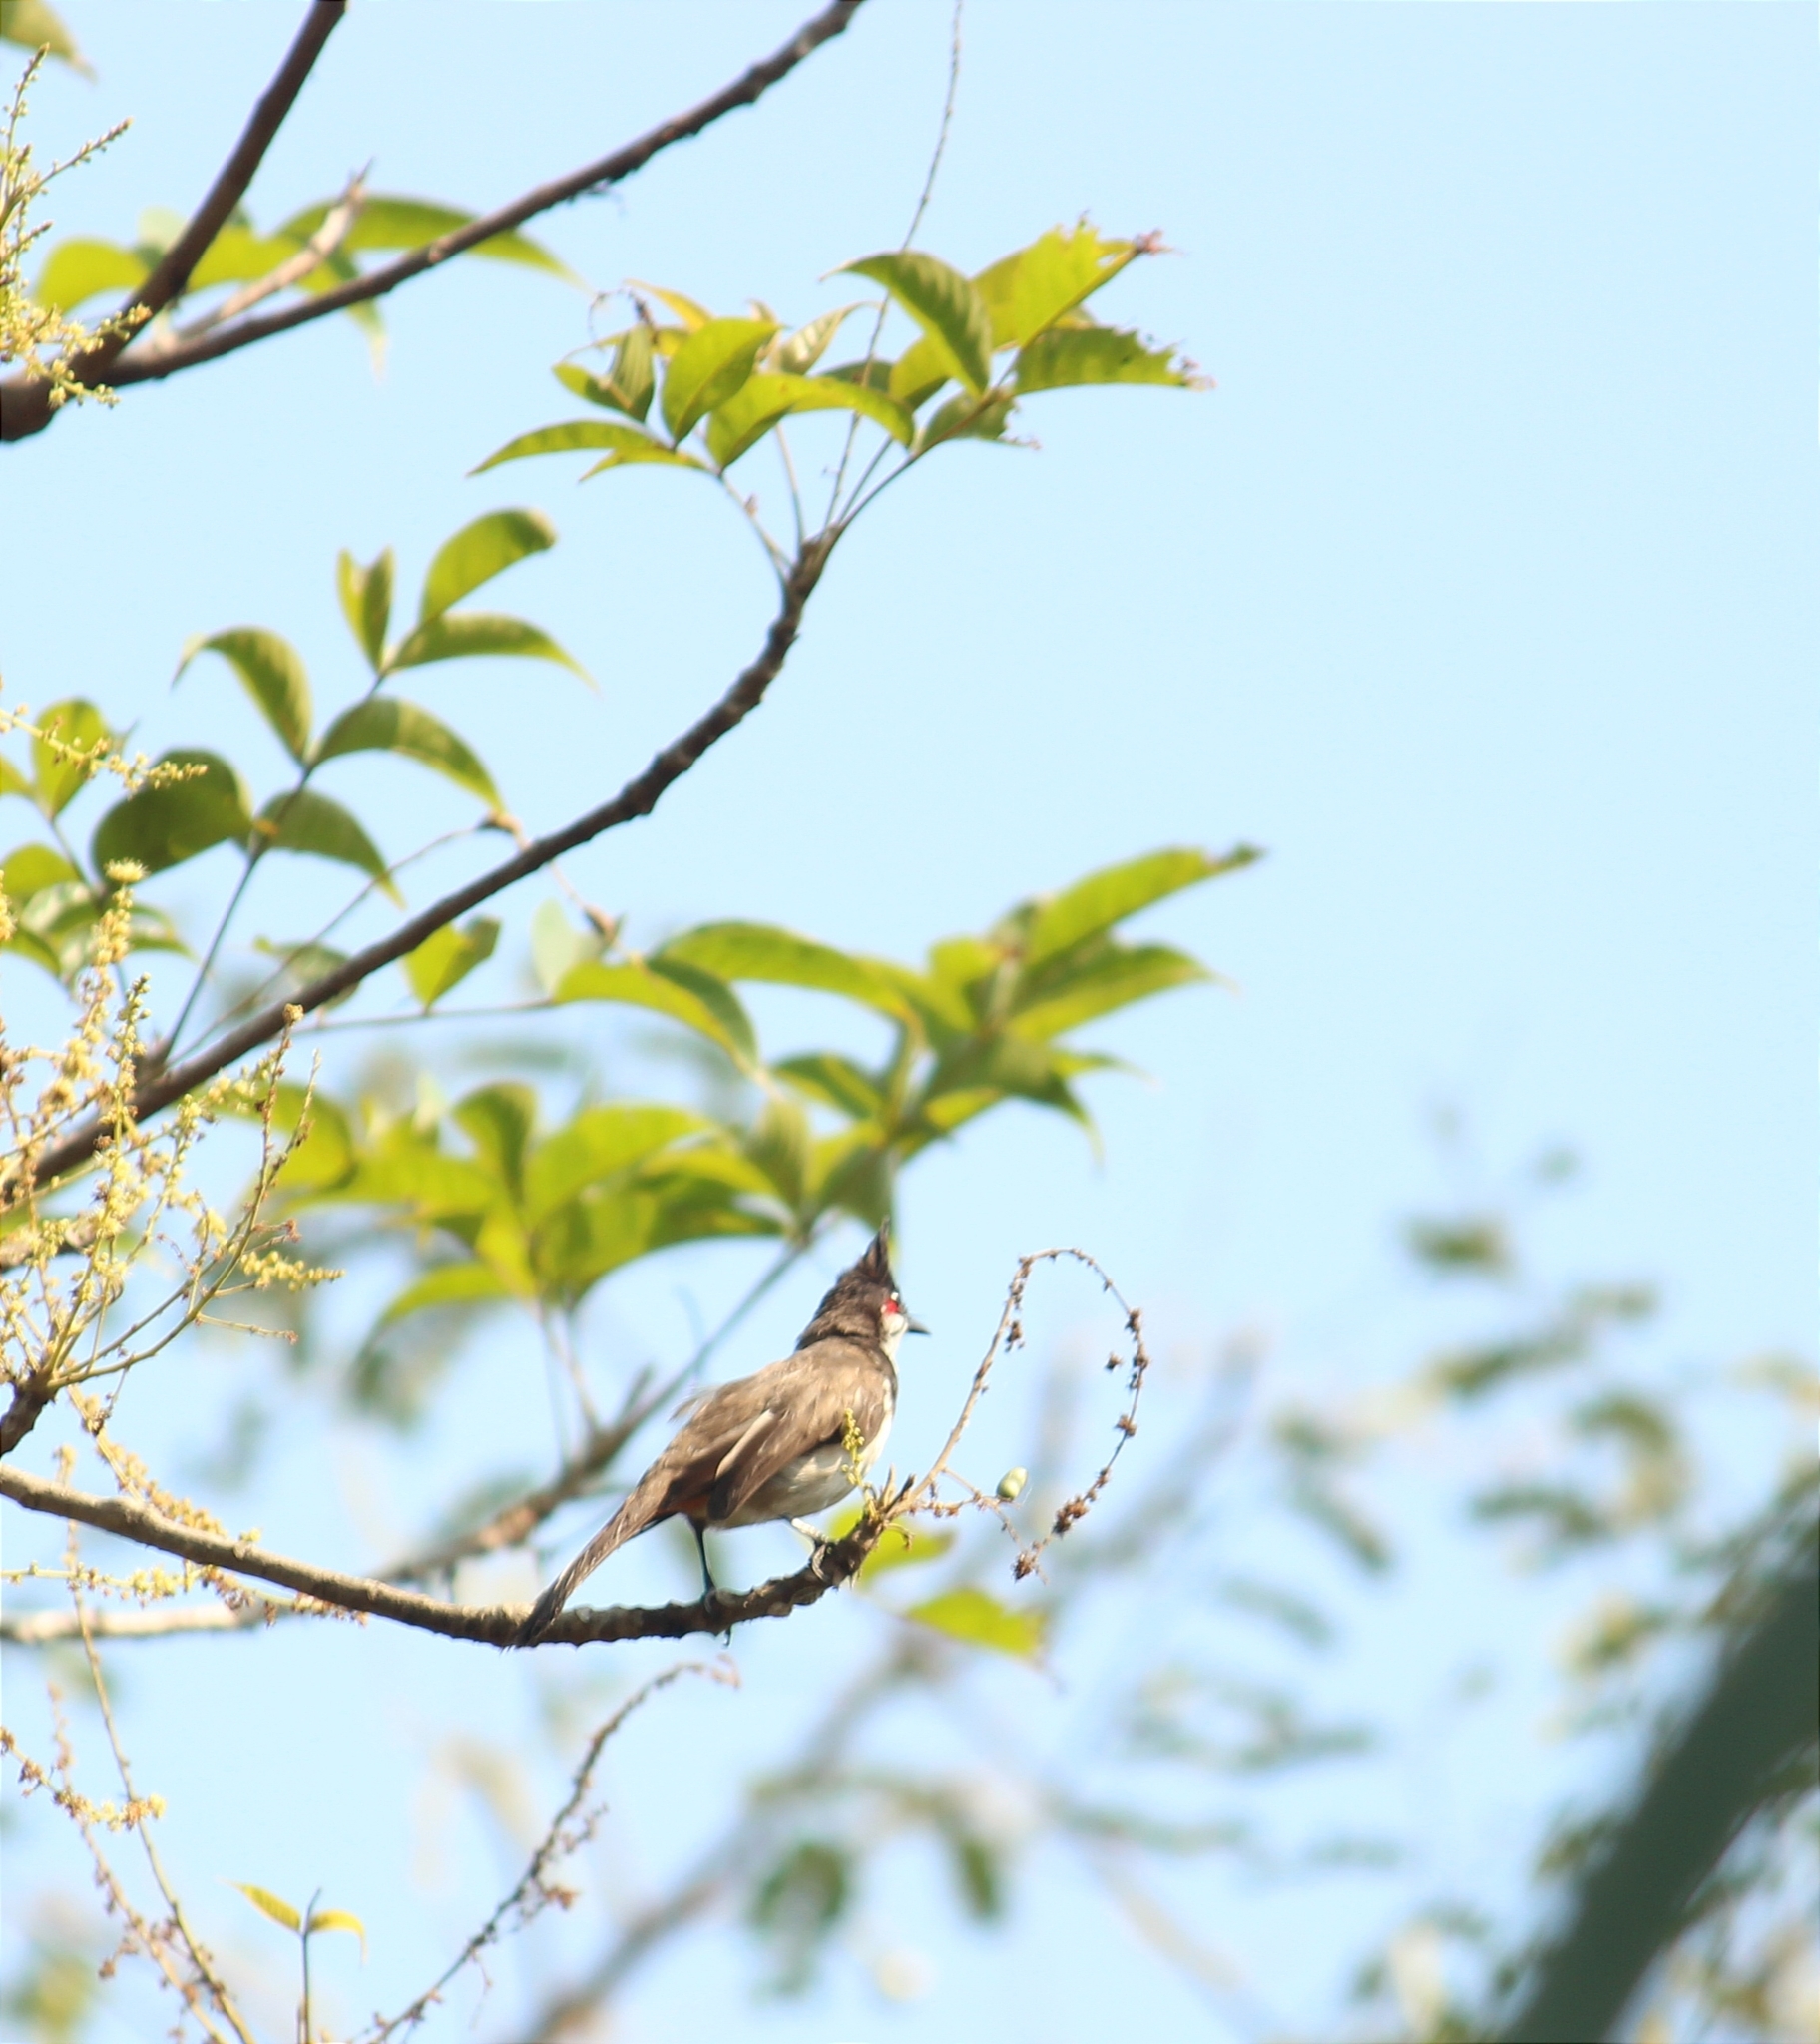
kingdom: Animalia
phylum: Chordata
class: Aves
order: Passeriformes
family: Pycnonotidae
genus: Pycnonotus
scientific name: Pycnonotus jocosus
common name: Red-whiskered bulbul
